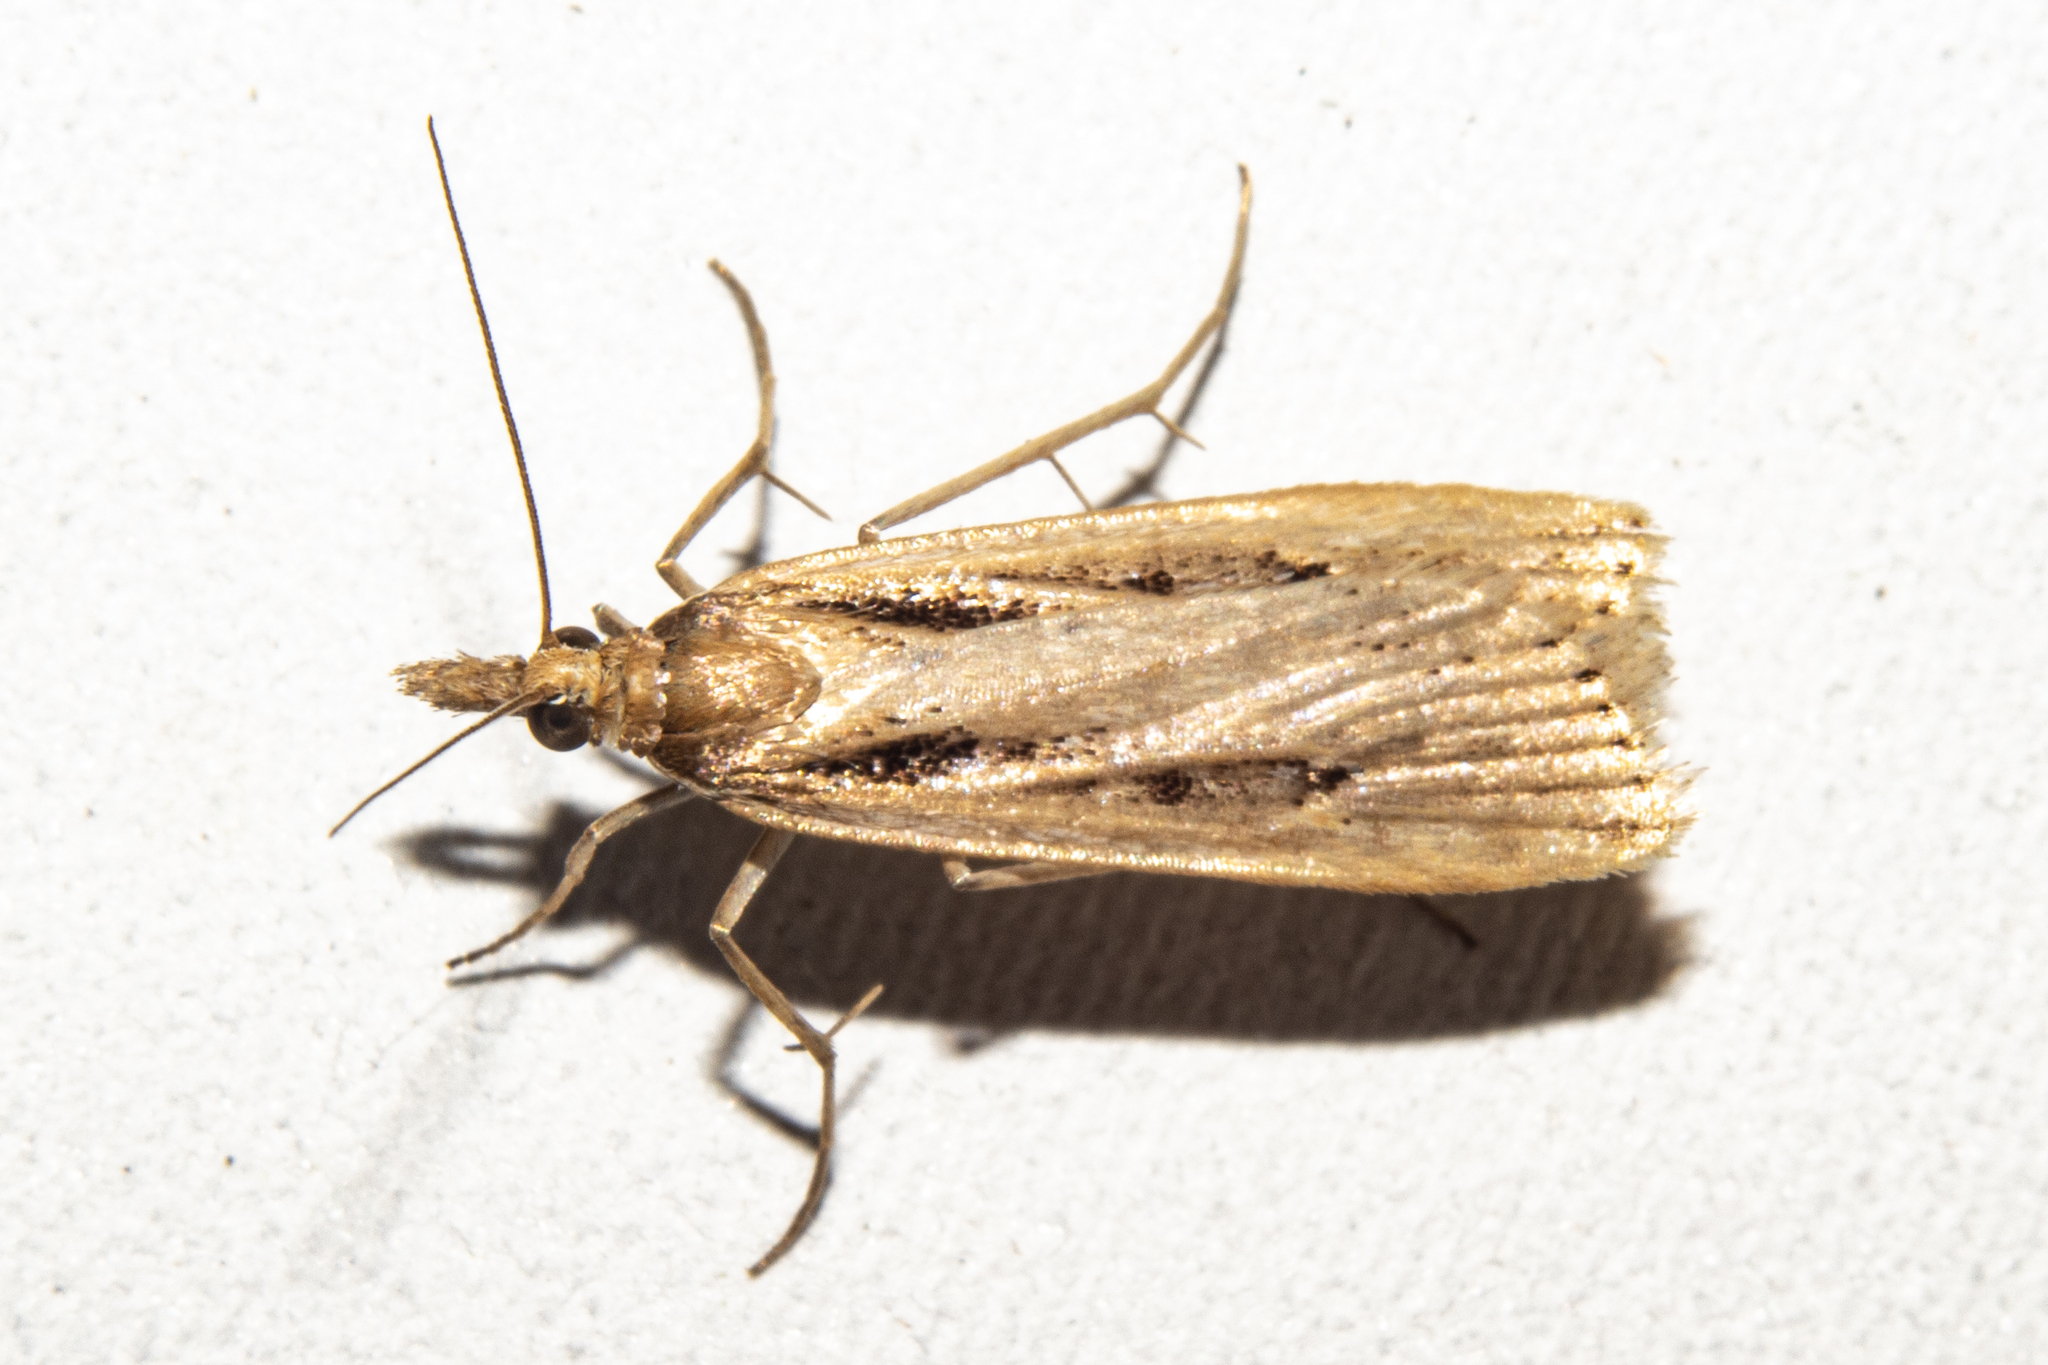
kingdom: Animalia
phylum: Arthropoda
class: Insecta
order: Lepidoptera
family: Crambidae
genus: Eudonia
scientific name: Eudonia sabulosella
